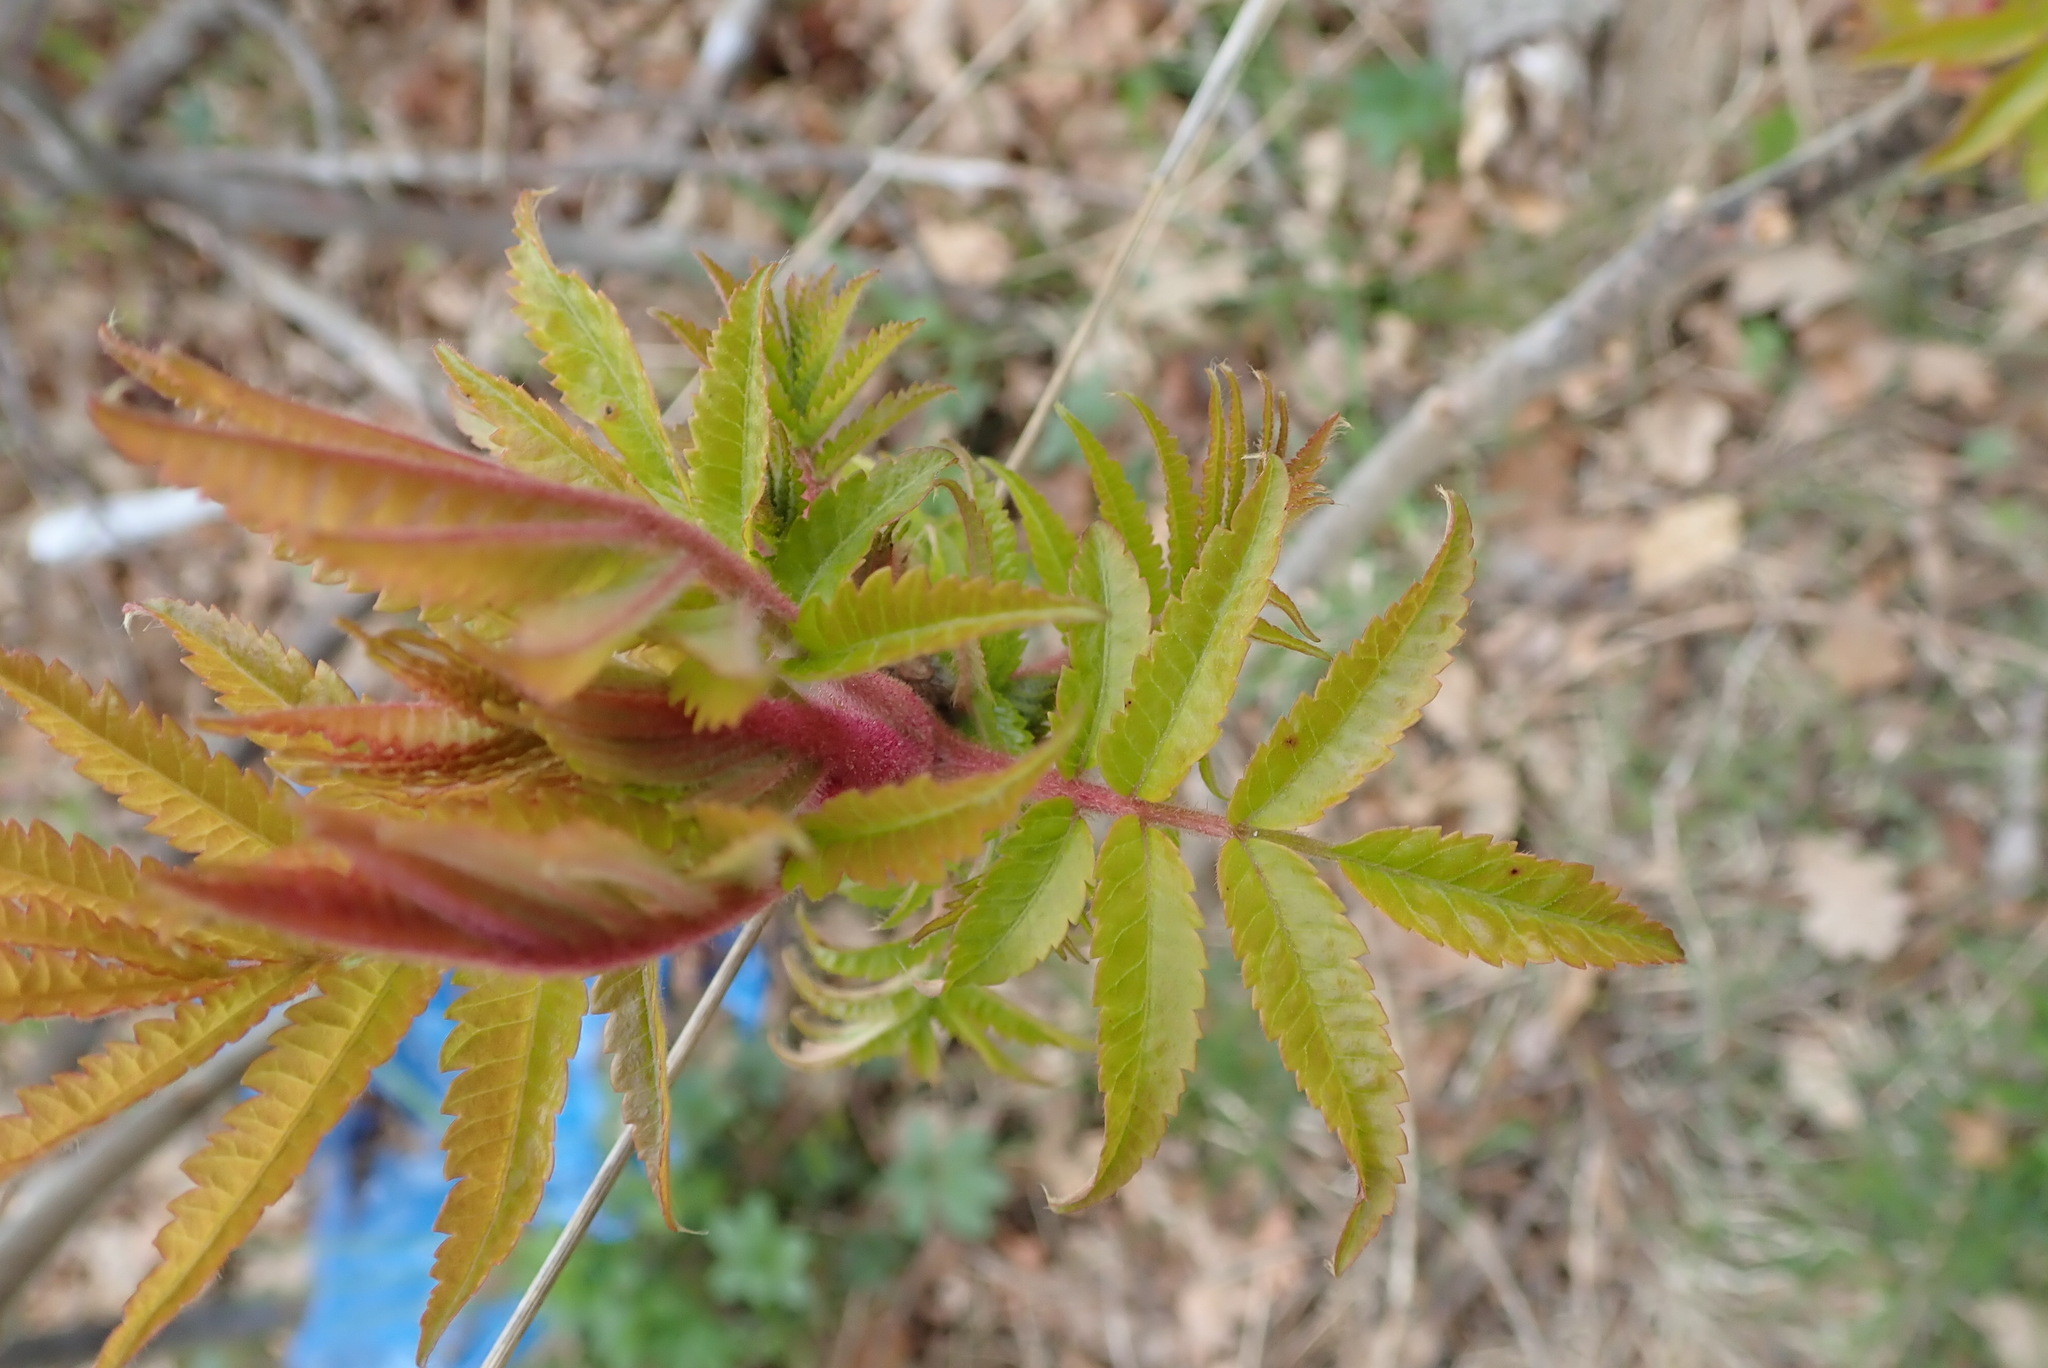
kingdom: Plantae
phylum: Tracheophyta
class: Magnoliopsida
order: Sapindales
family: Anacardiaceae
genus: Rhus
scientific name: Rhus typhina
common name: Staghorn sumac
